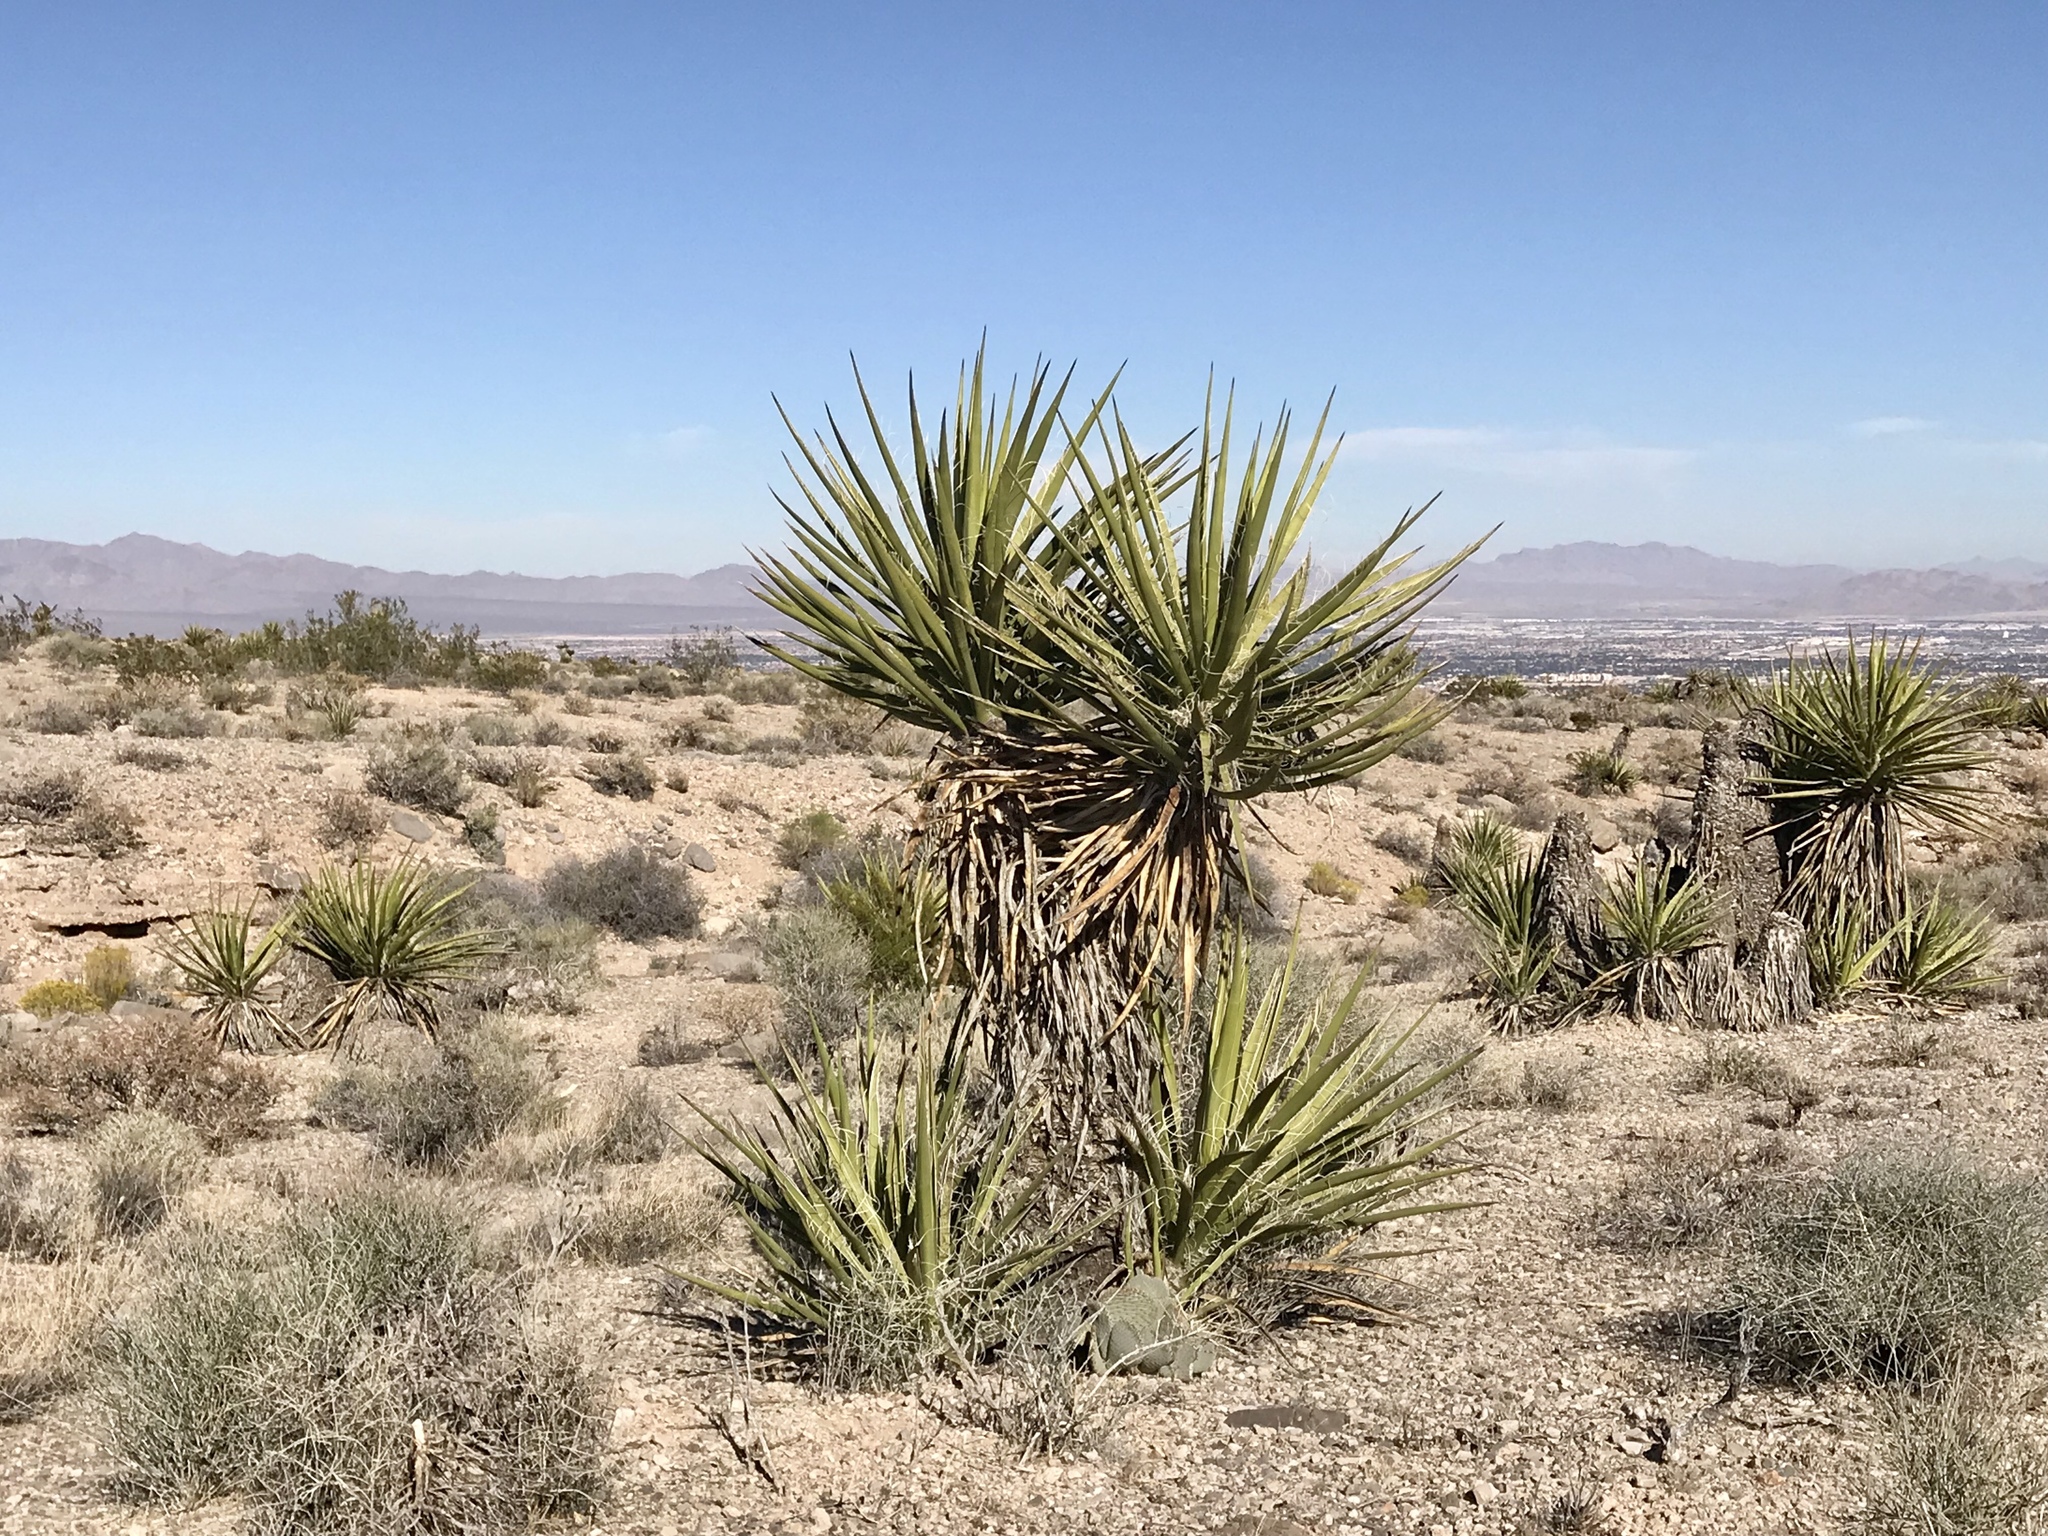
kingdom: Plantae
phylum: Tracheophyta
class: Liliopsida
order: Asparagales
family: Asparagaceae
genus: Yucca
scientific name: Yucca schidigera
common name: Mojave yucca
